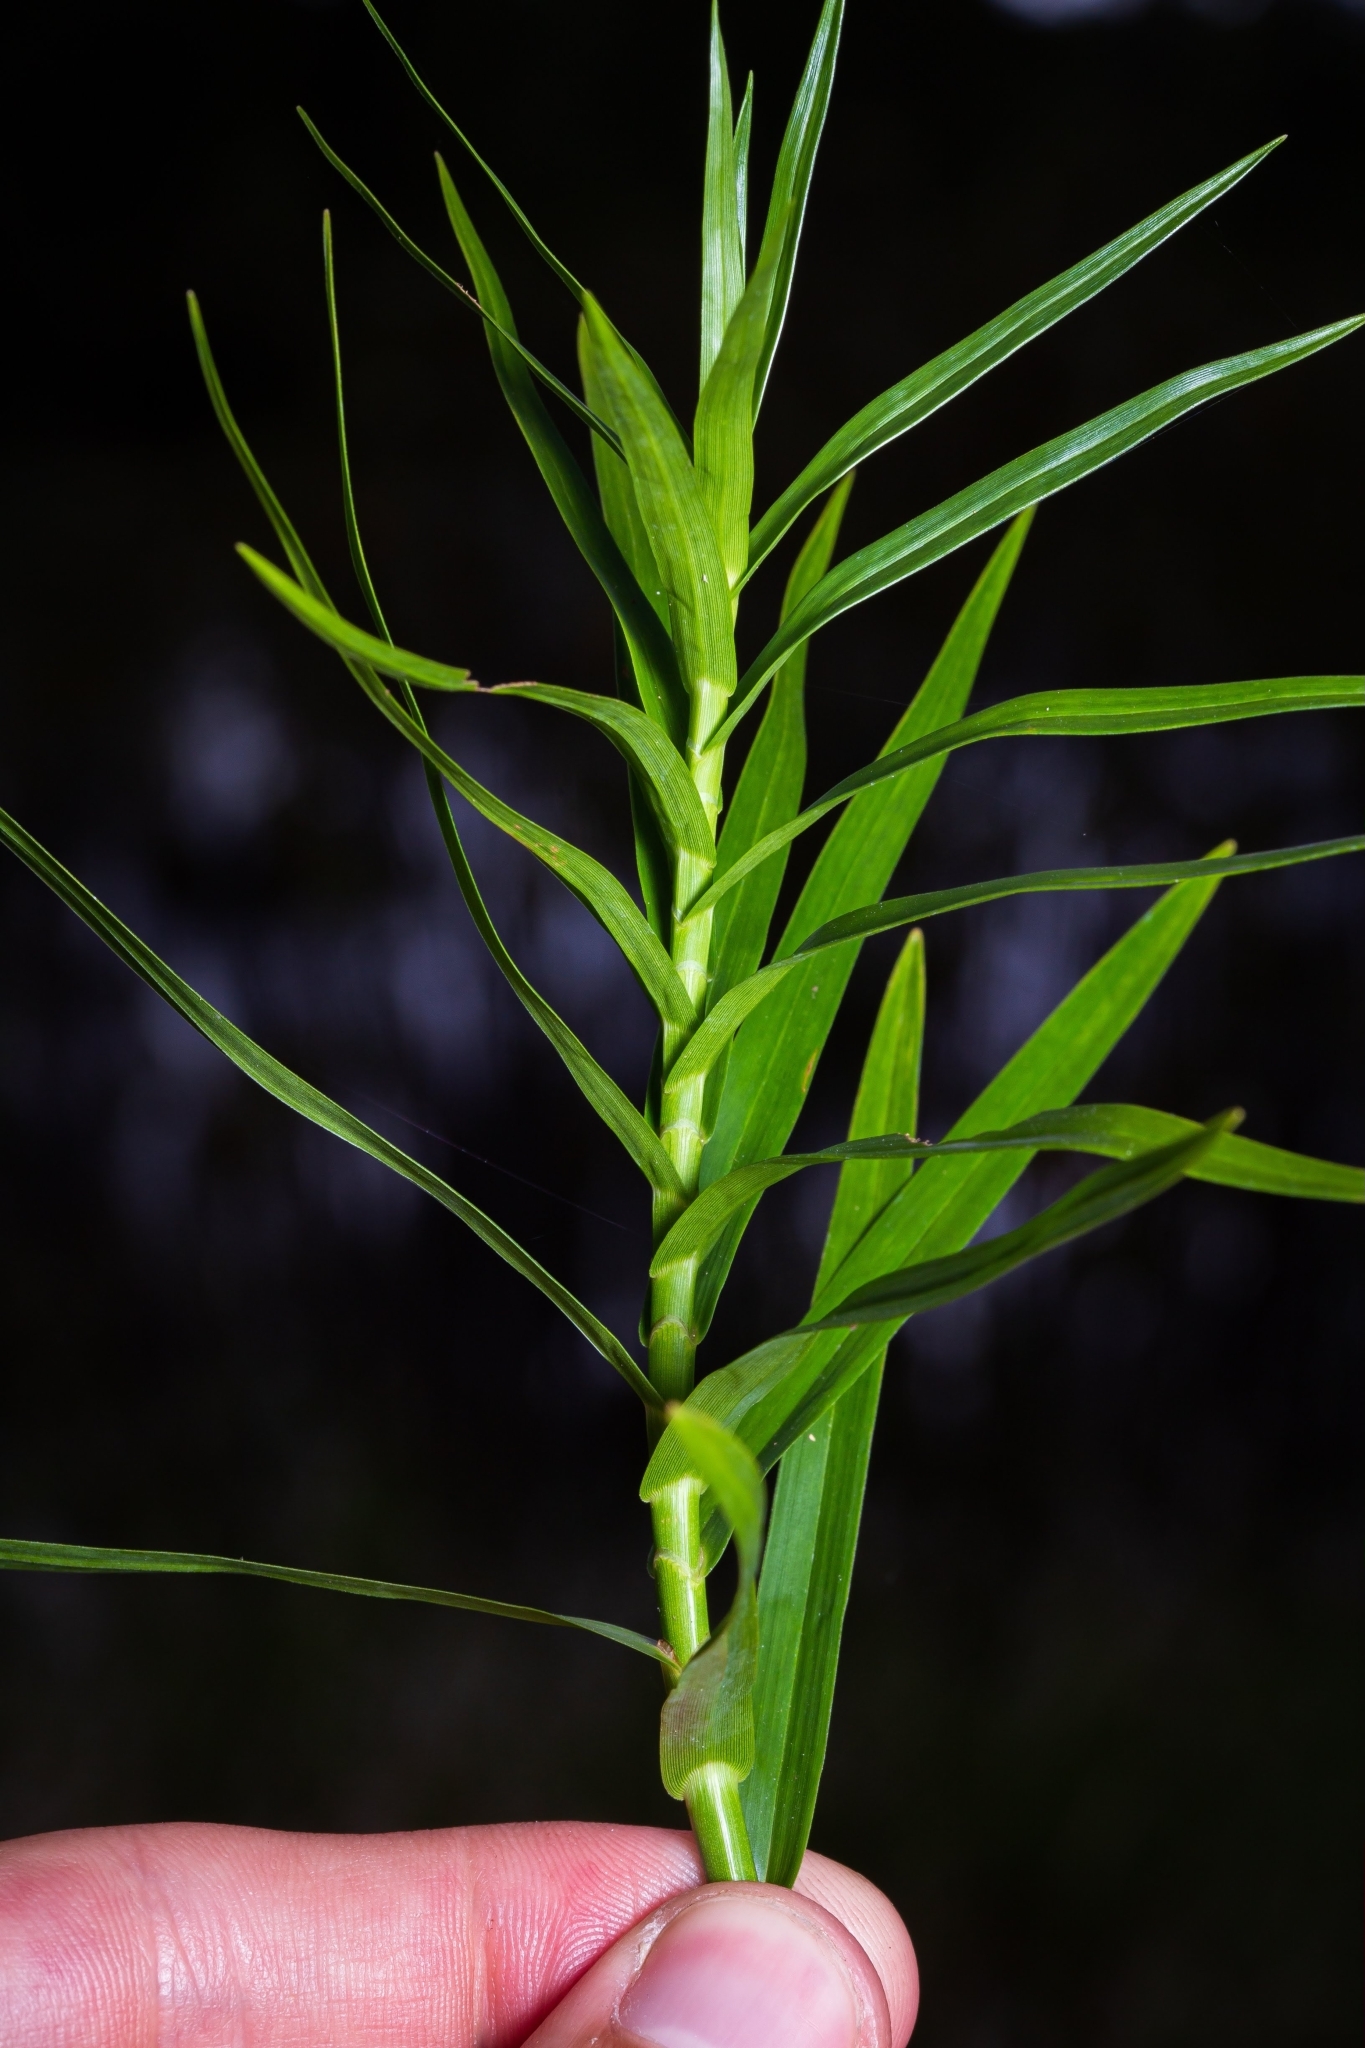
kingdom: Plantae
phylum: Tracheophyta
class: Liliopsida
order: Poales
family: Cyperaceae
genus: Dulichium
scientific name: Dulichium arundinaceum
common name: Three-way sedge
